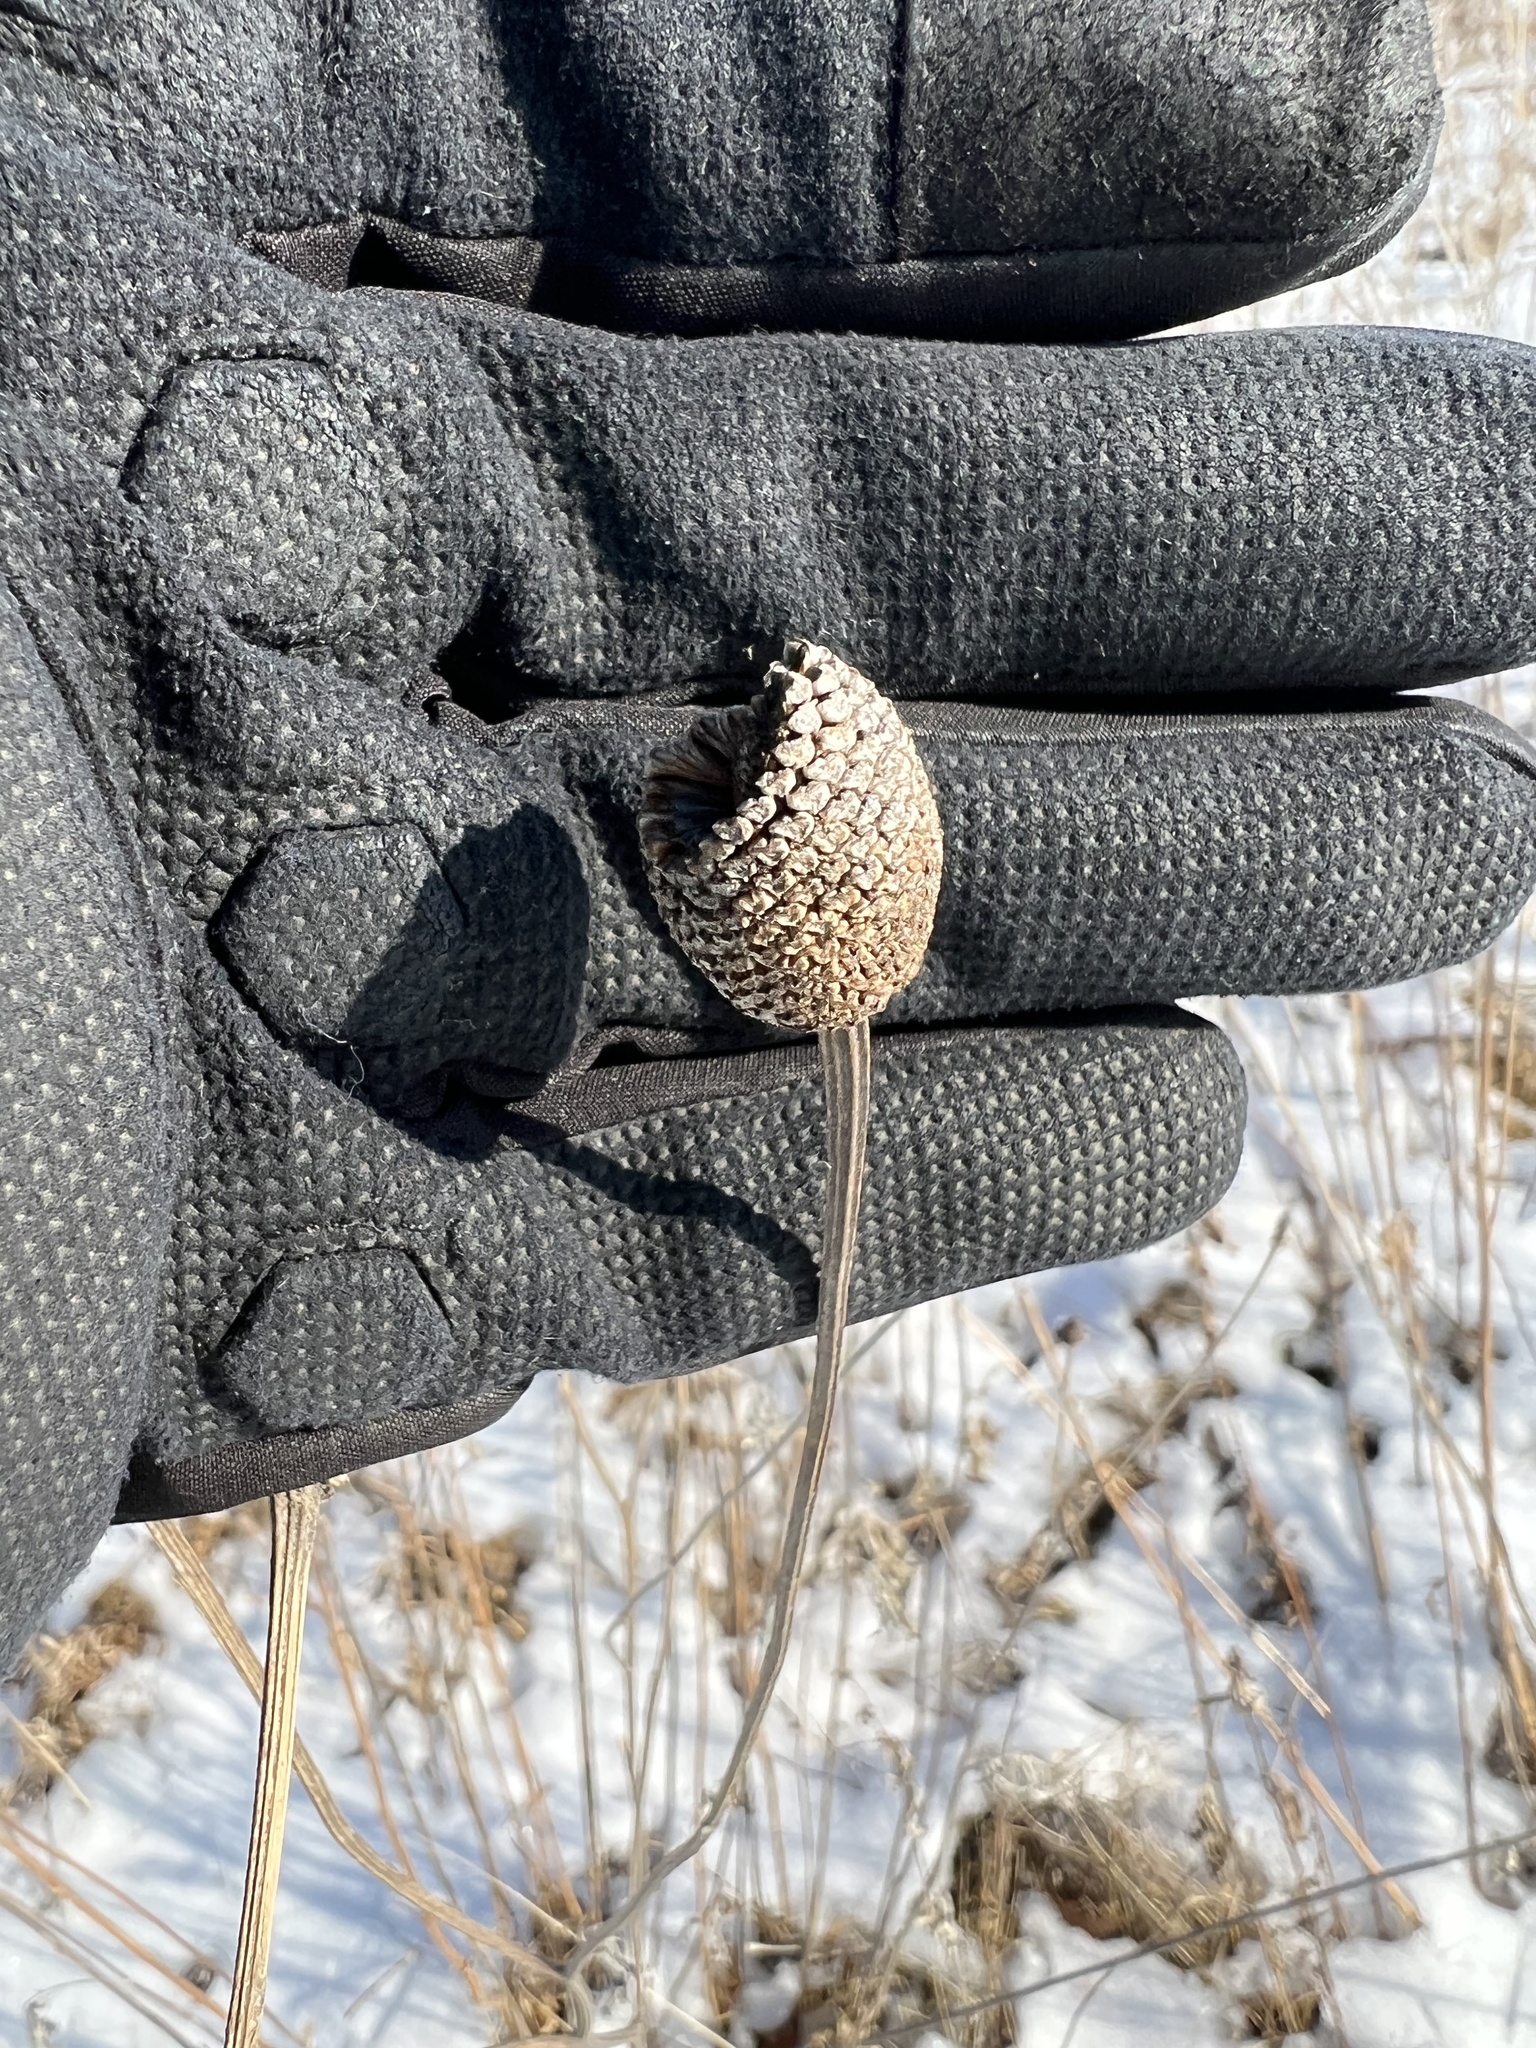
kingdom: Plantae
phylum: Tracheophyta
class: Magnoliopsida
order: Asterales
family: Asteraceae
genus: Ratibida
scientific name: Ratibida pinnata
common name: Drooping prairie-coneflower
